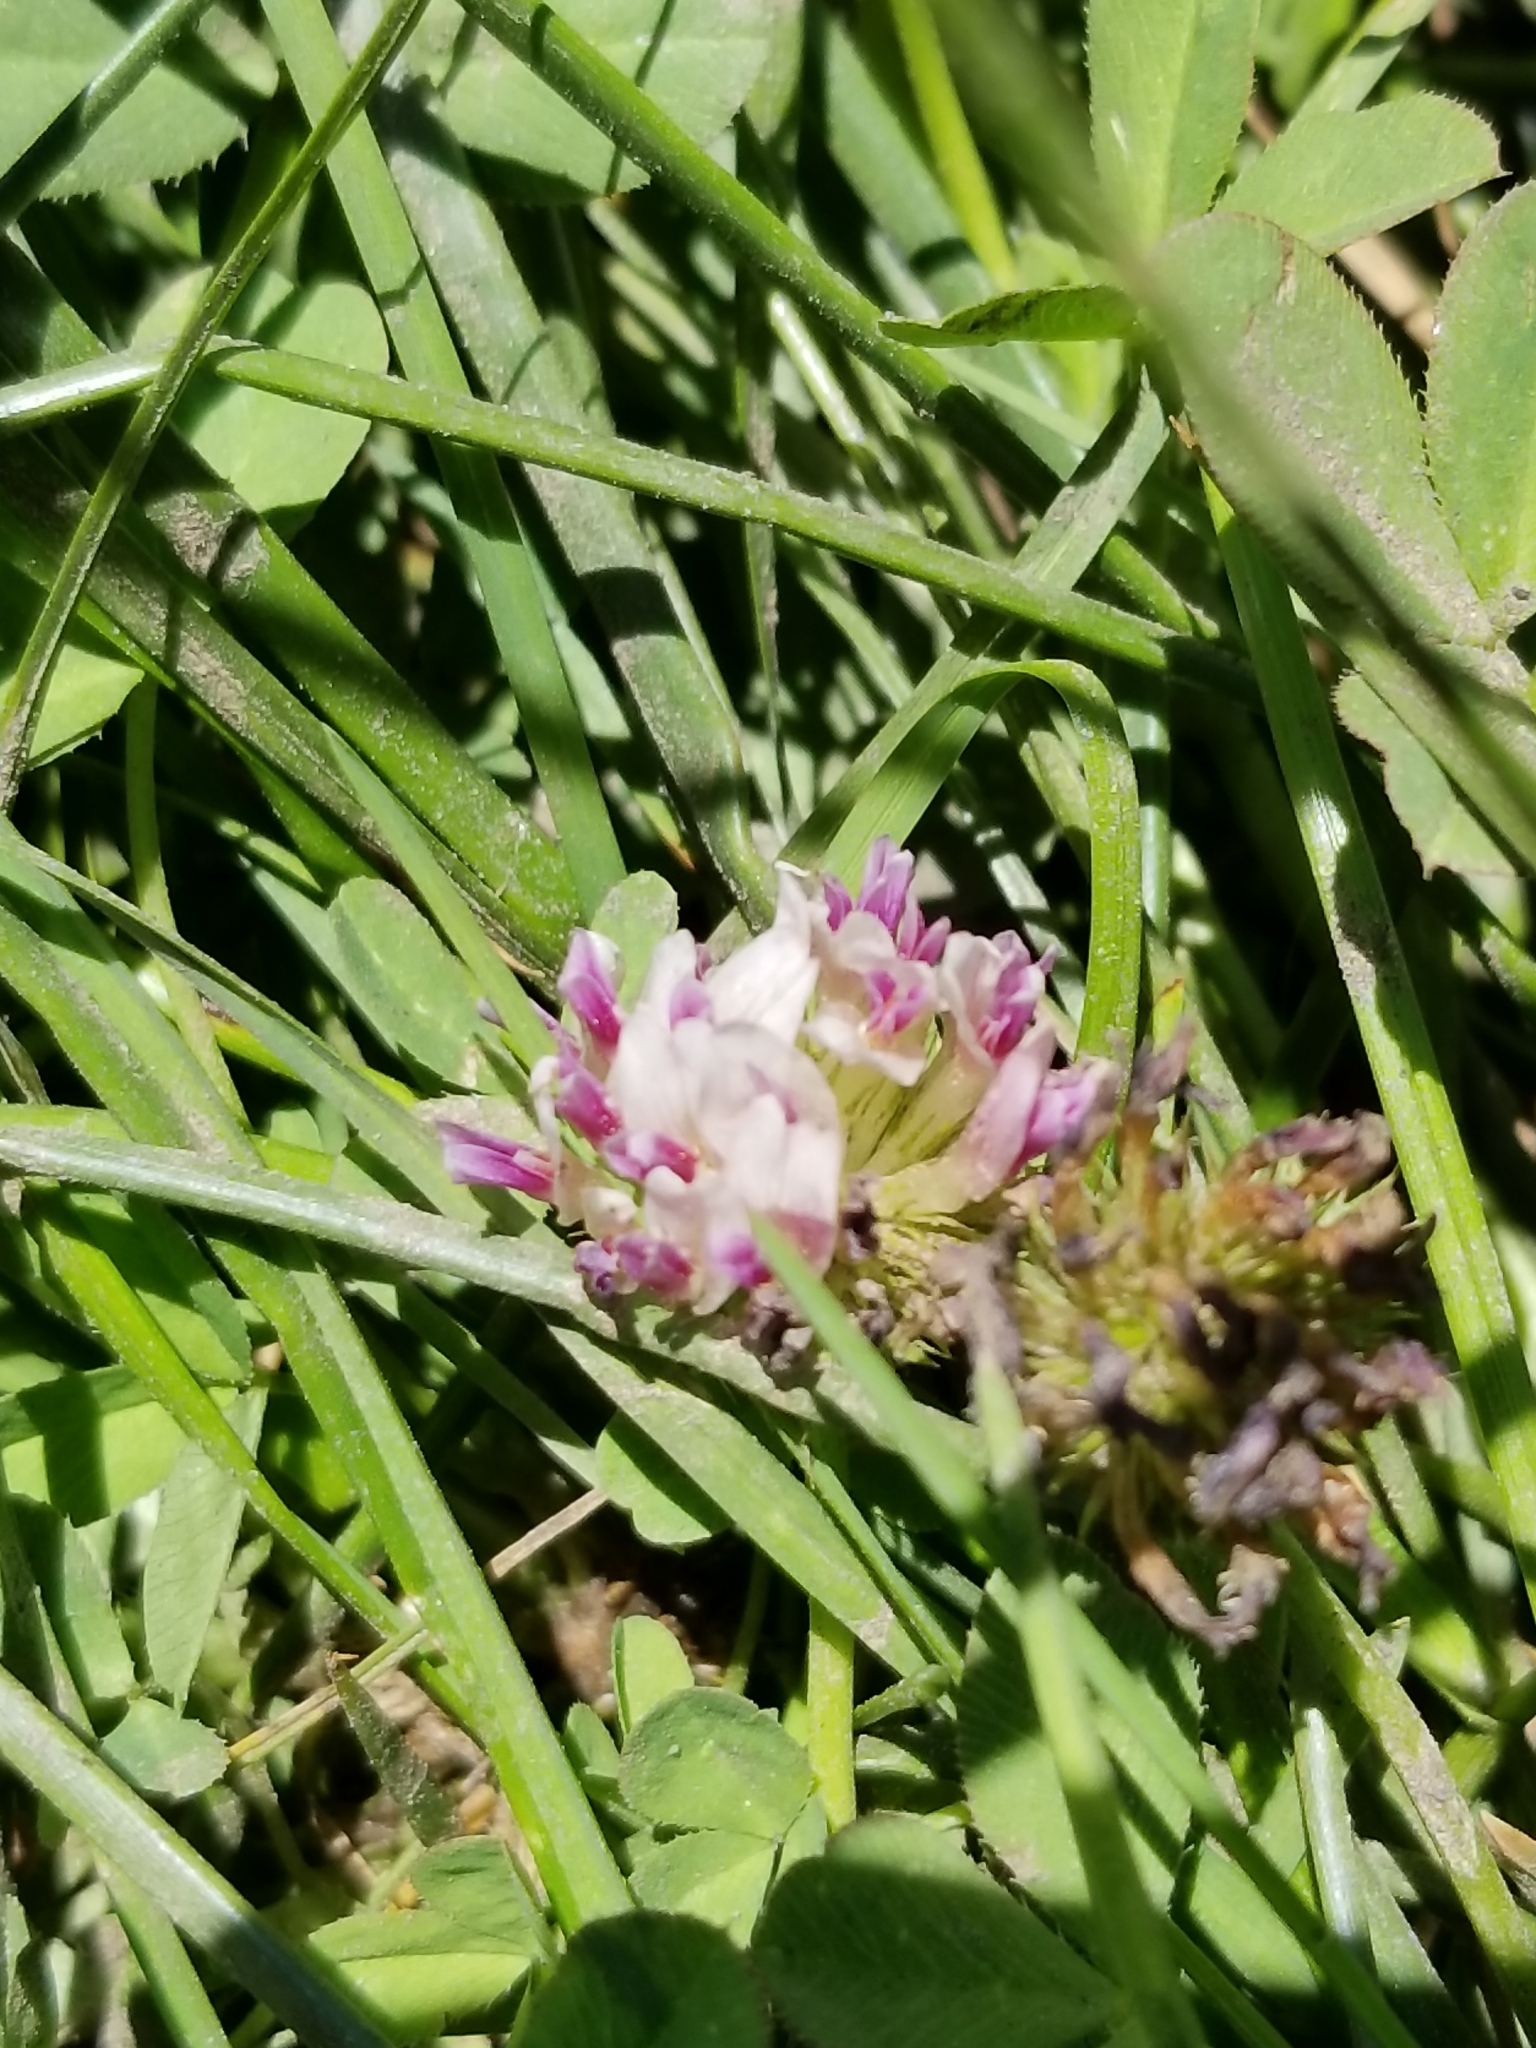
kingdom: Plantae
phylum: Tracheophyta
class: Magnoliopsida
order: Fabales
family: Fabaceae
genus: Trifolium
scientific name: Trifolium wormskioldii
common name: Springbank clover
